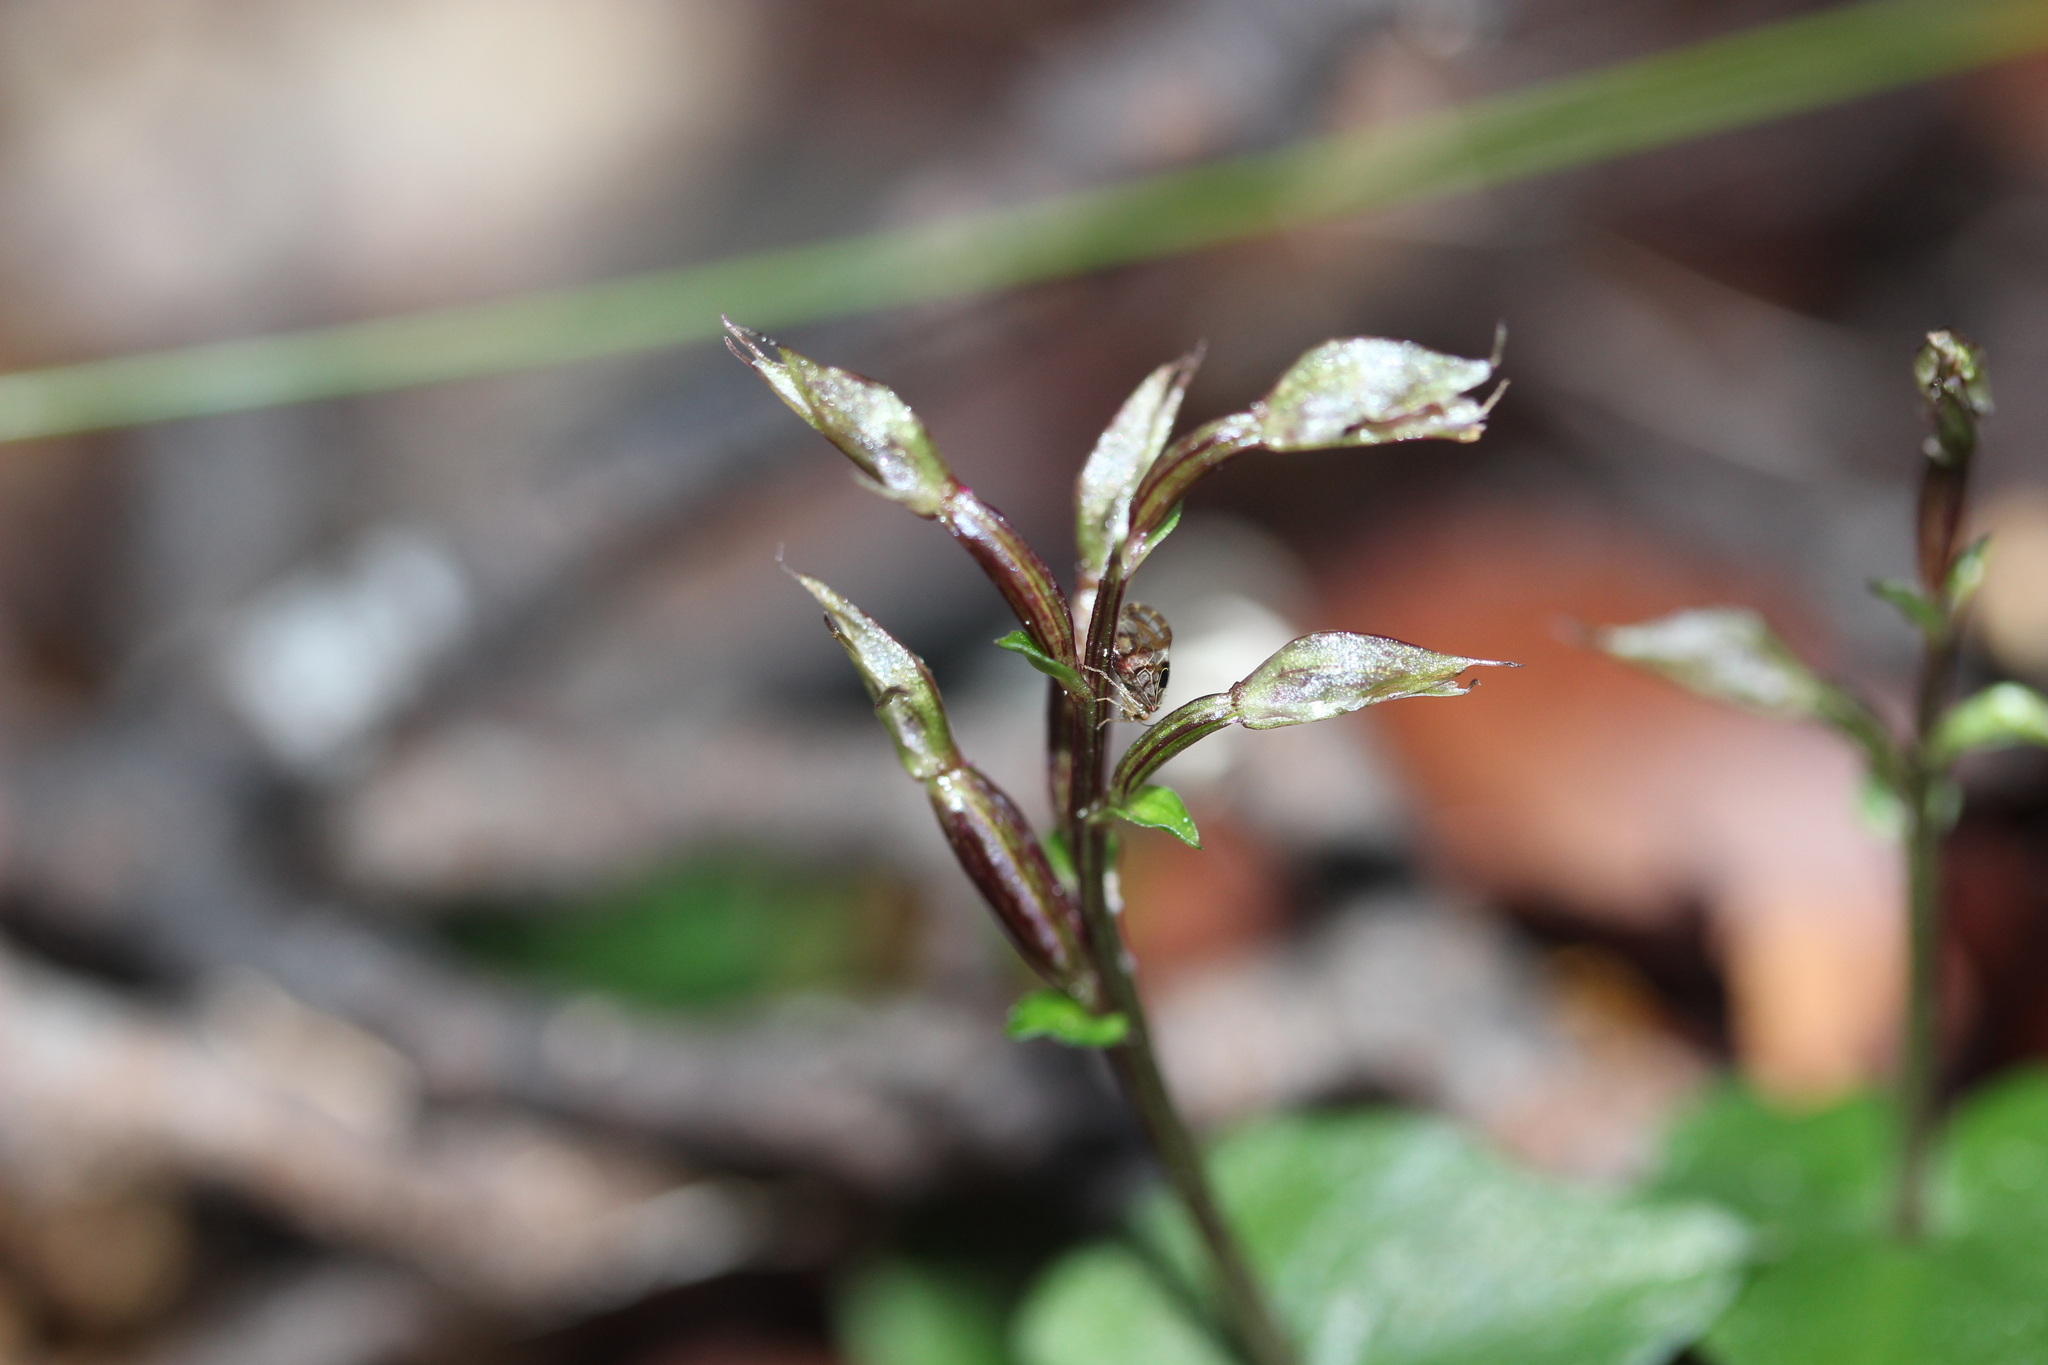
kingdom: Plantae
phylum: Tracheophyta
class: Liliopsida
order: Asparagales
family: Orchidaceae
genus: Acianthus
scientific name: Acianthus sinclairii
